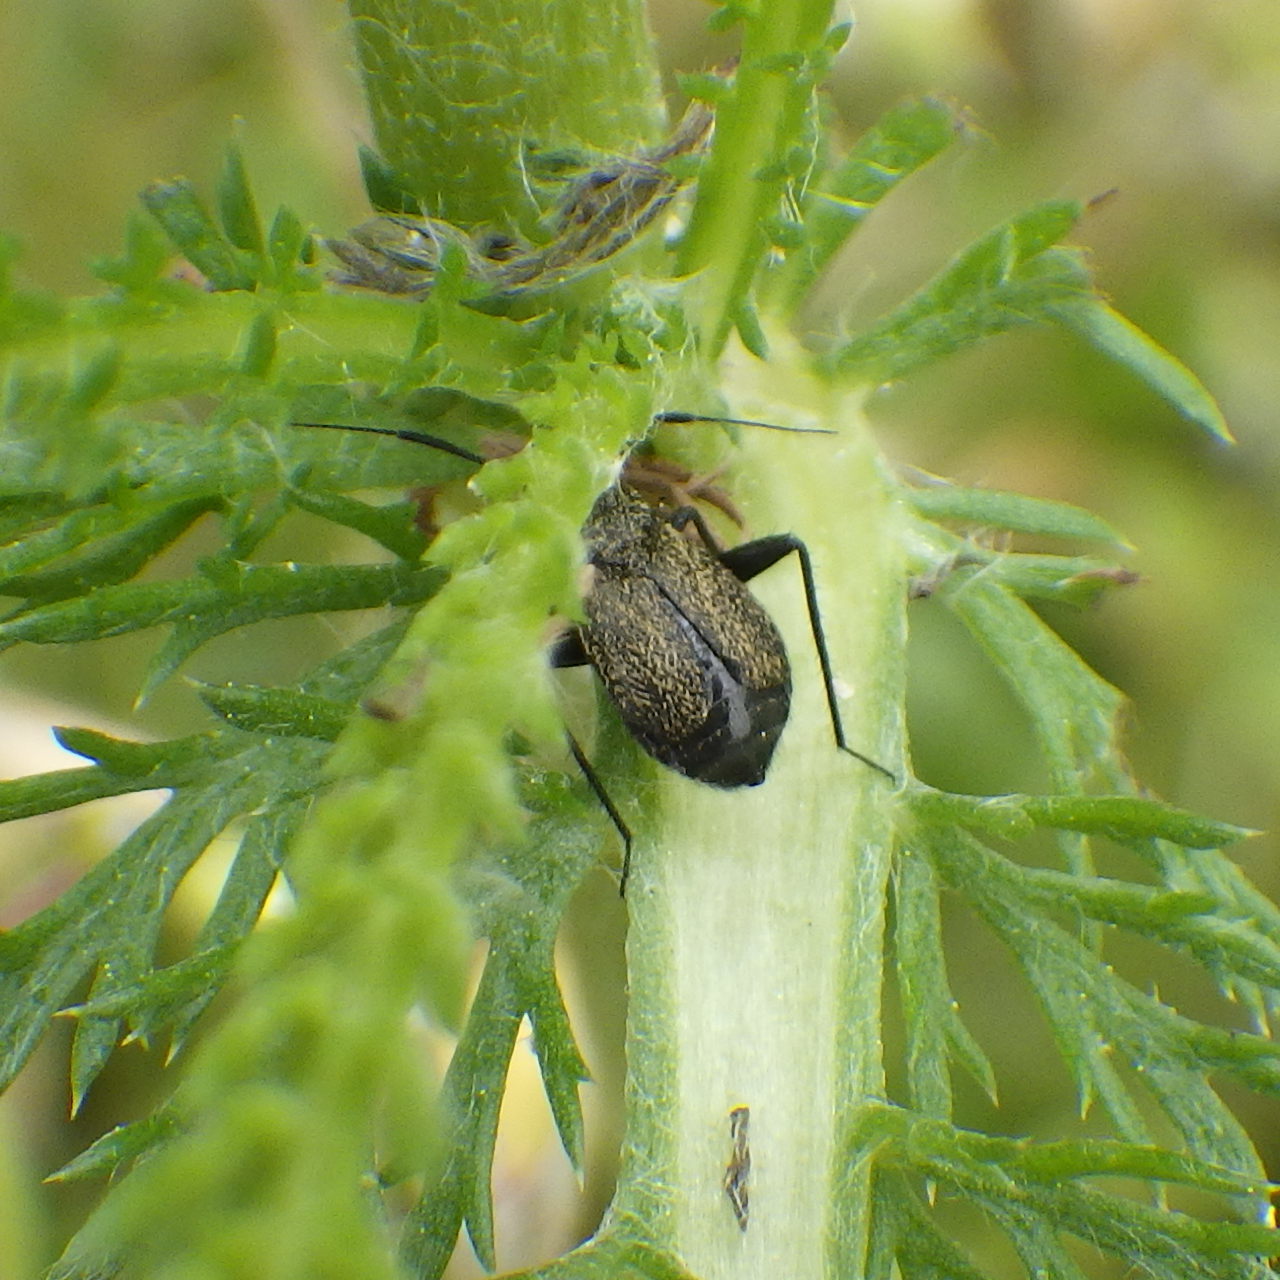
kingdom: Animalia
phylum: Arthropoda
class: Insecta
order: Hemiptera
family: Miridae
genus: Orthocephalus
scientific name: Orthocephalus coriaceus
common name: Plant bug
